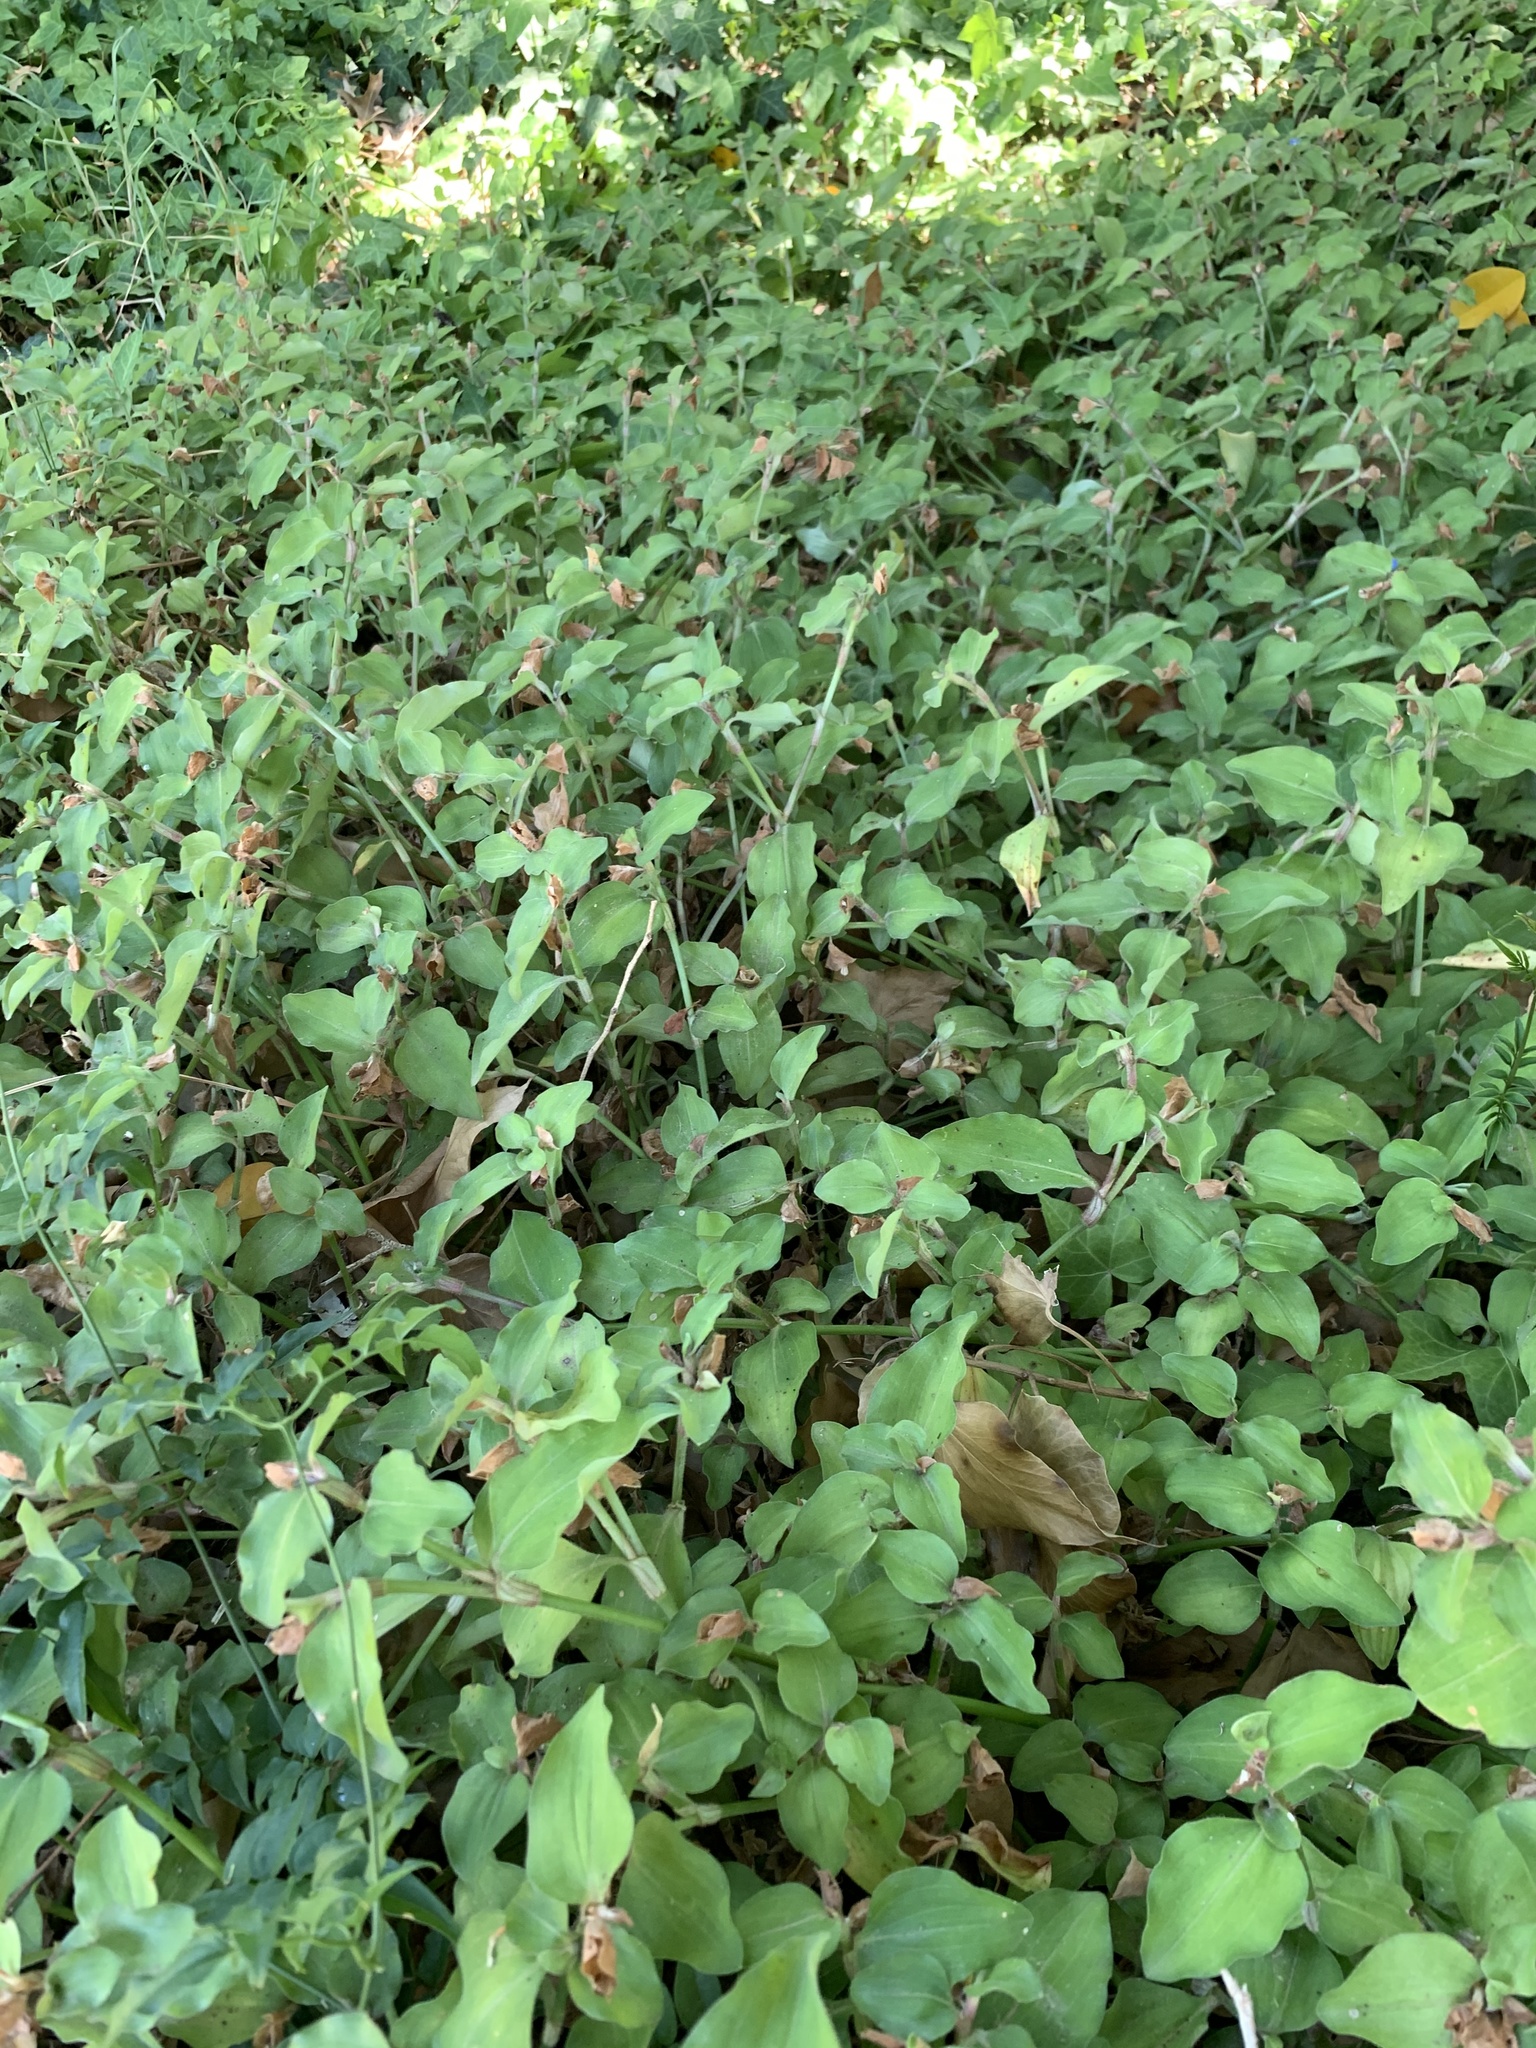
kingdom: Plantae
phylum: Tracheophyta
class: Liliopsida
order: Commelinales
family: Commelinaceae
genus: Commelina
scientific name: Commelina benghalensis
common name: Jio
